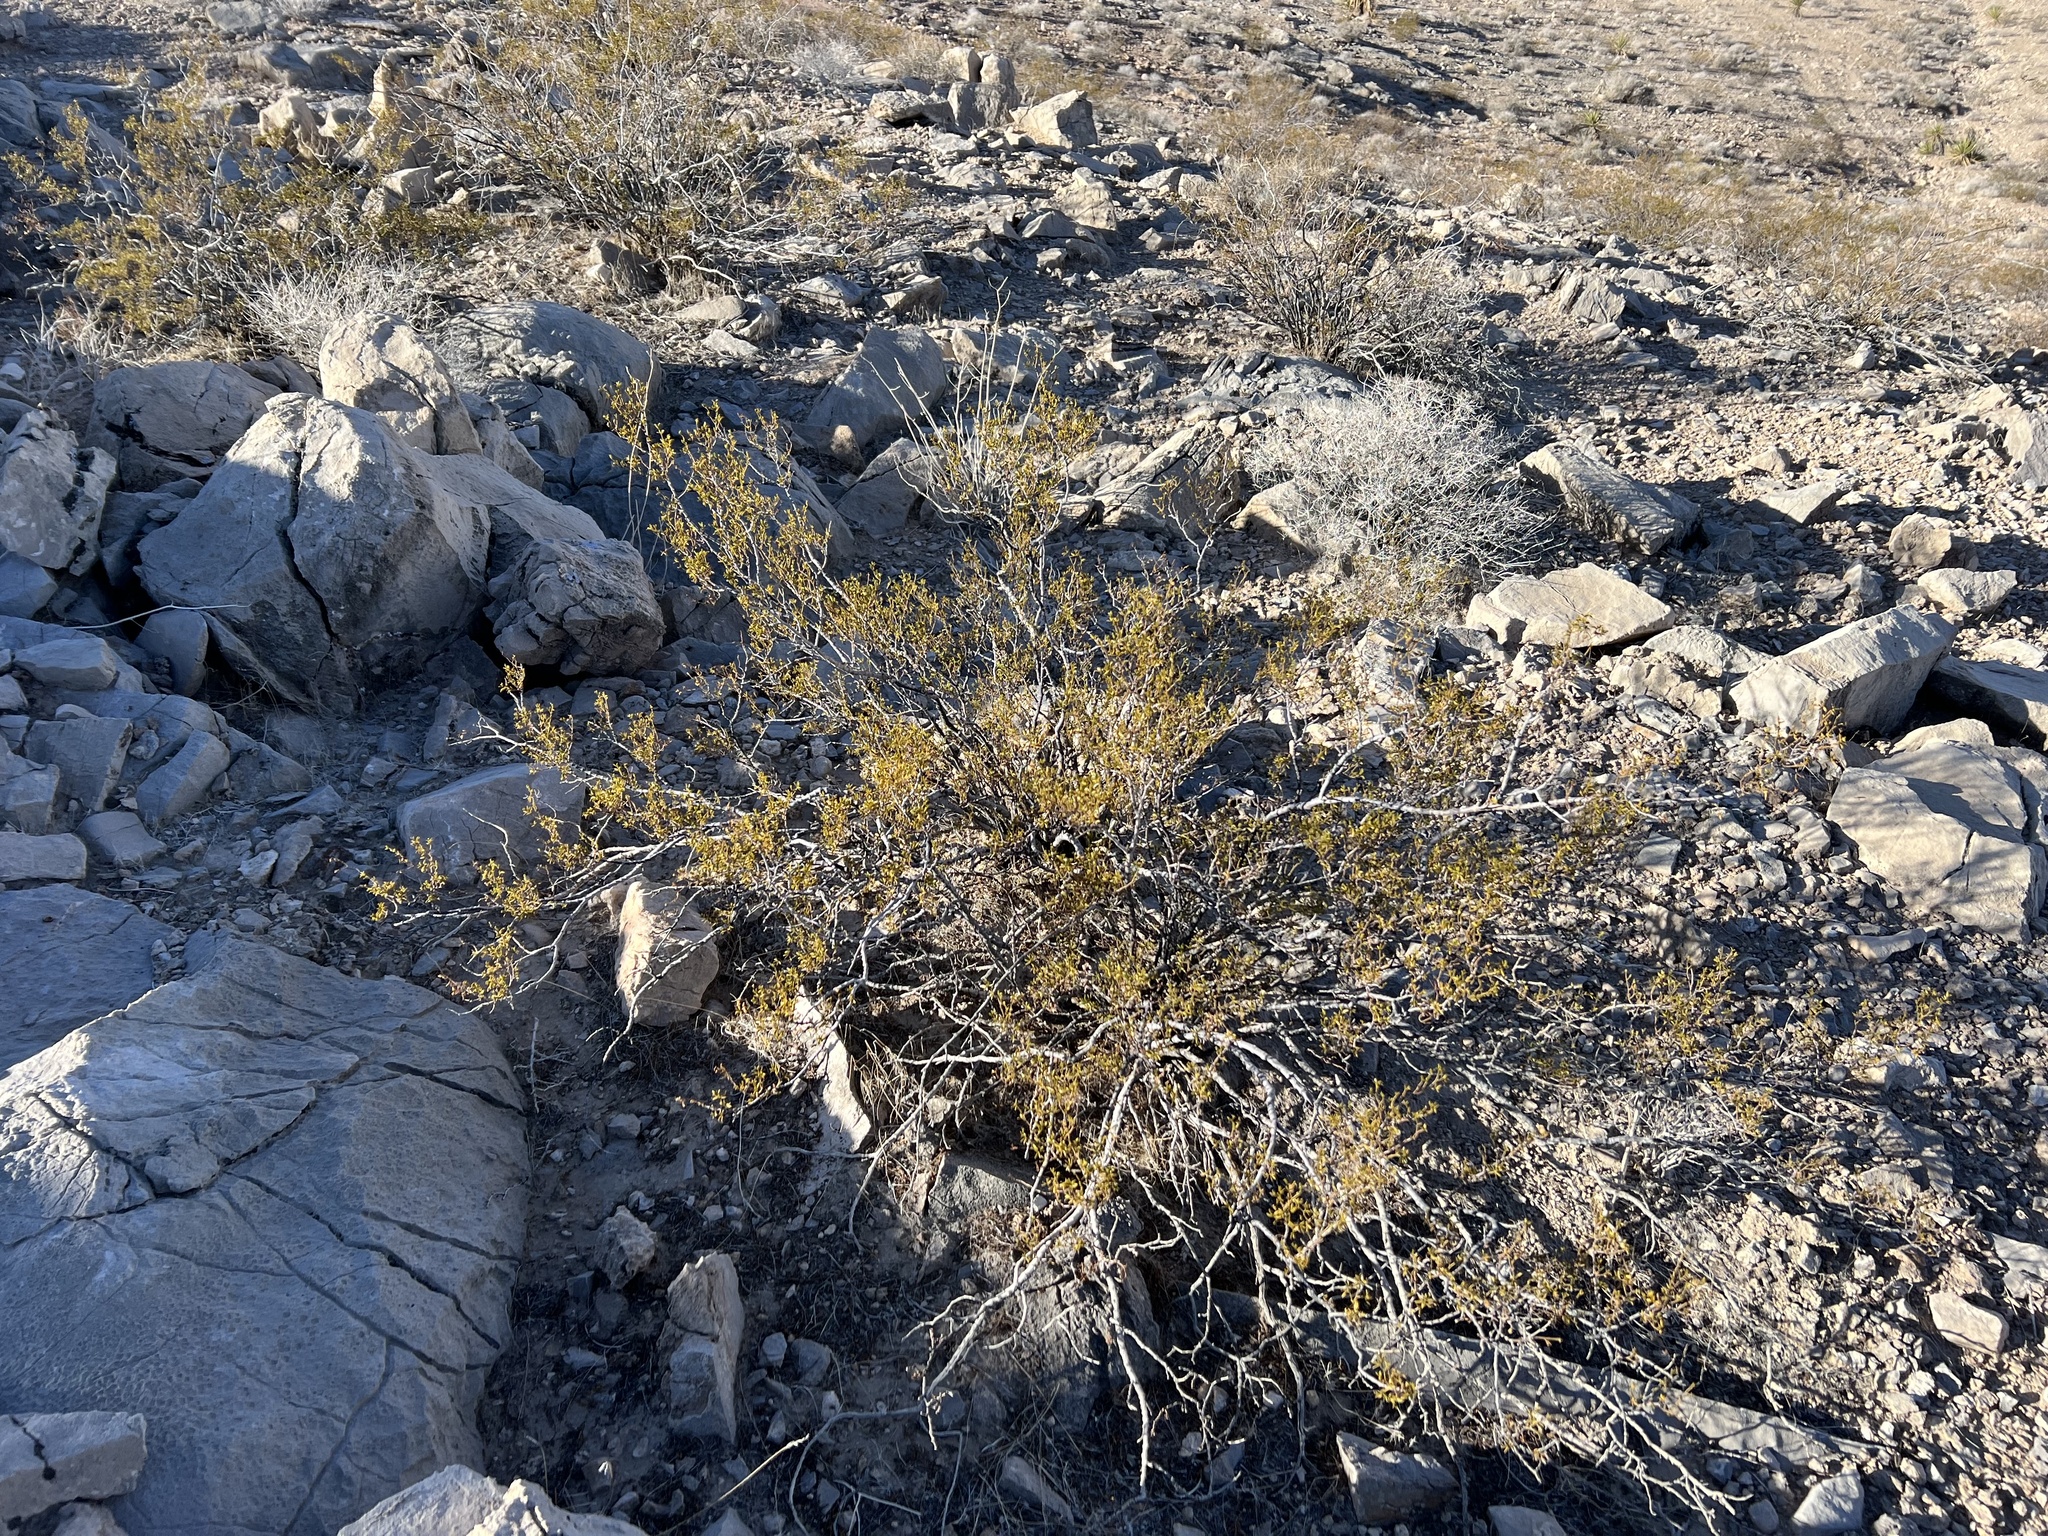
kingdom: Plantae
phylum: Tracheophyta
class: Magnoliopsida
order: Zygophyllales
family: Zygophyllaceae
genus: Larrea
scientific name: Larrea tridentata
